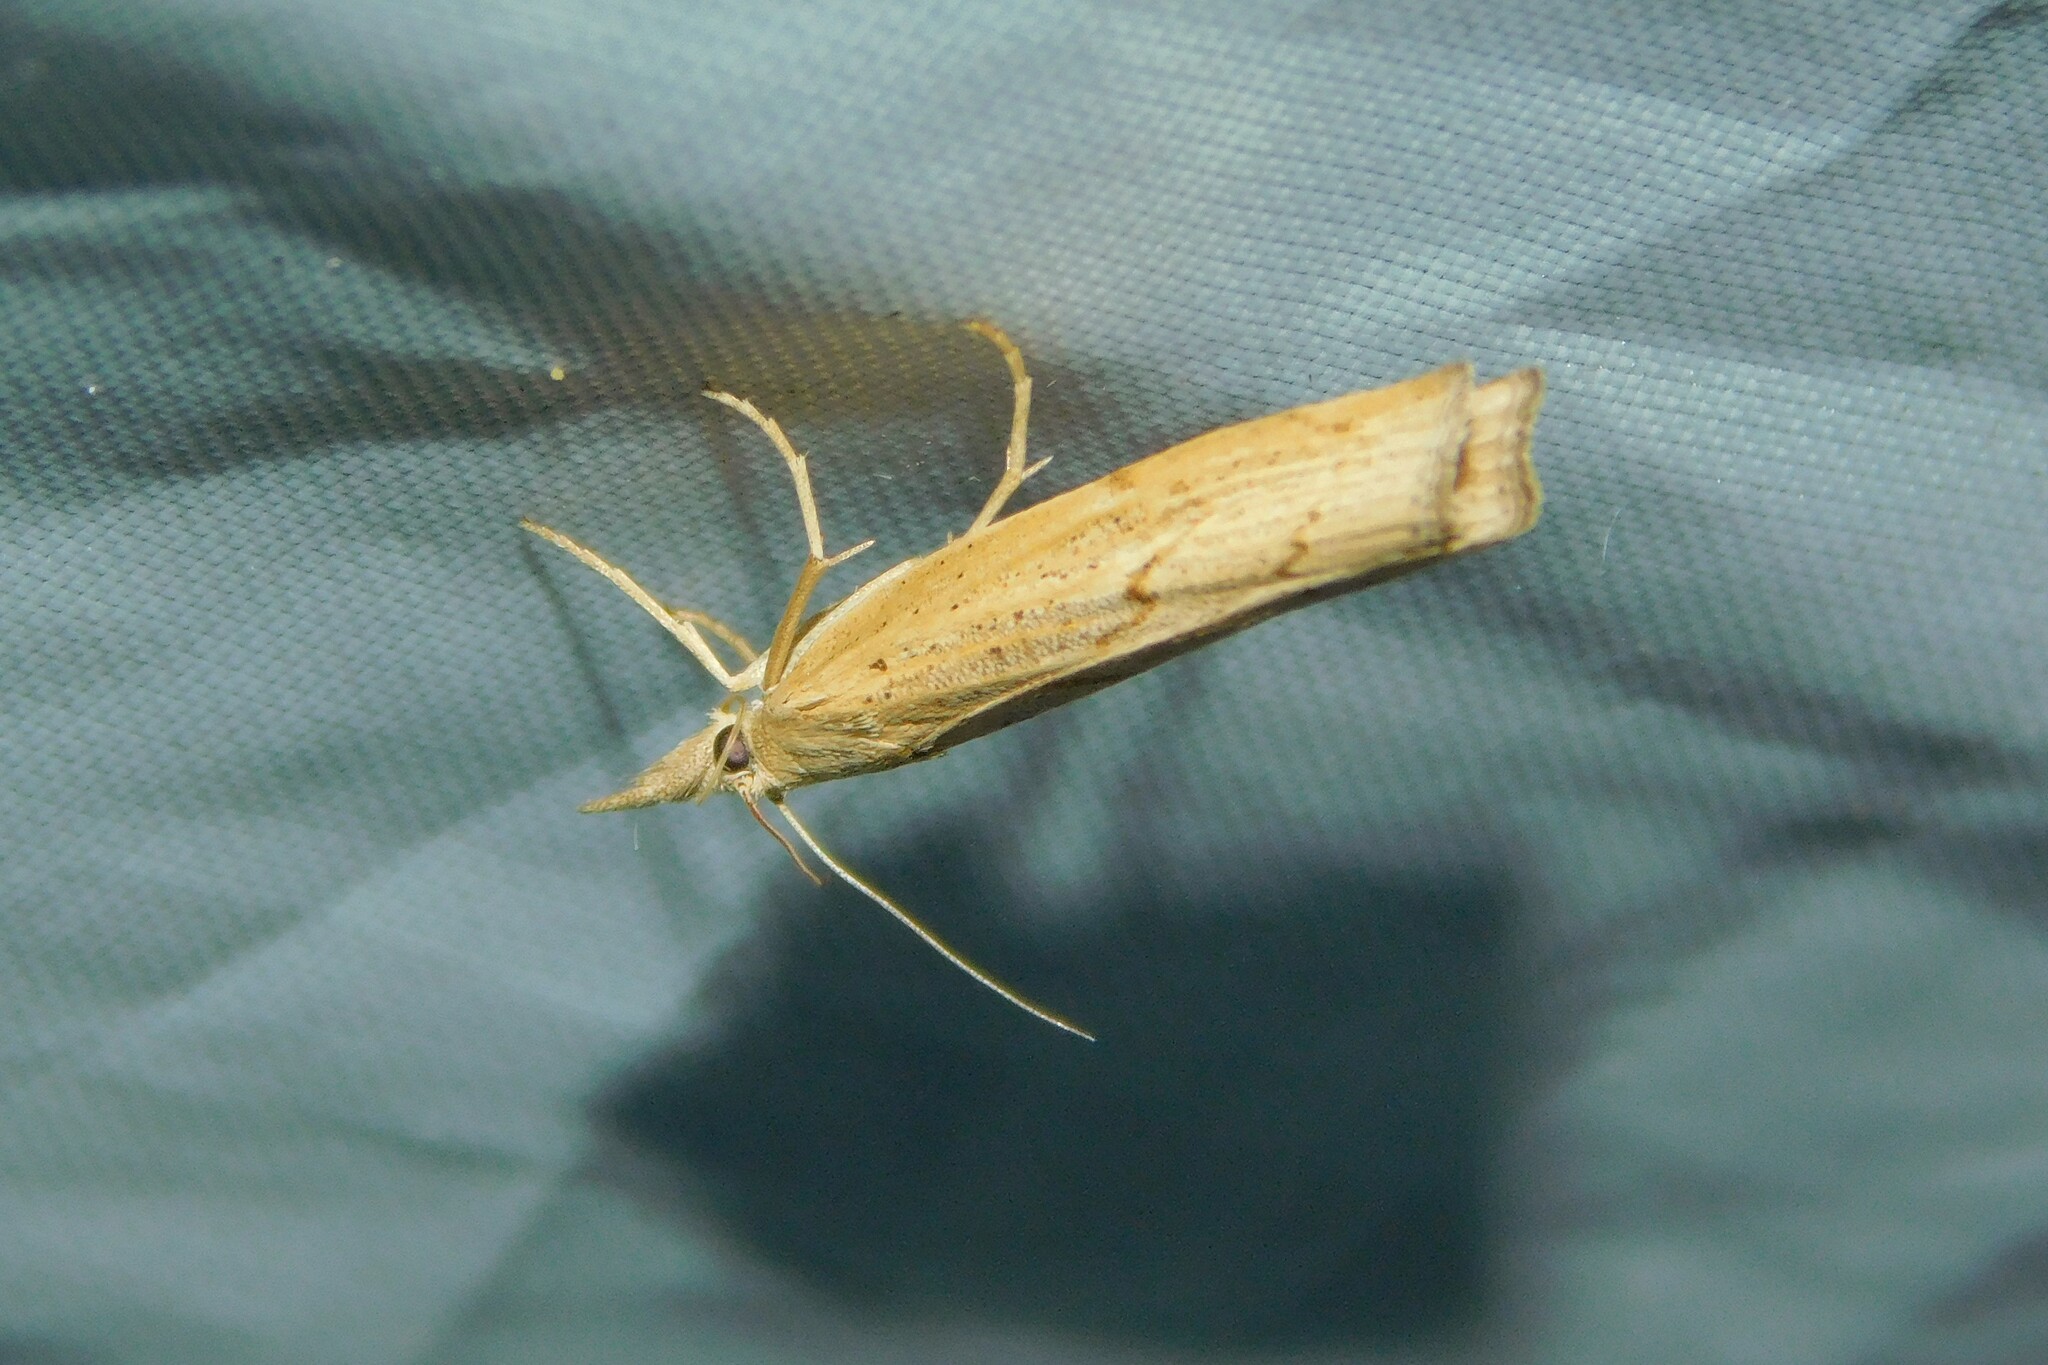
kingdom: Animalia
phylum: Arthropoda
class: Insecta
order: Lepidoptera
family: Crambidae
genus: Pediasia
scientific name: Pediasia contaminella
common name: Waste grass-veneer
